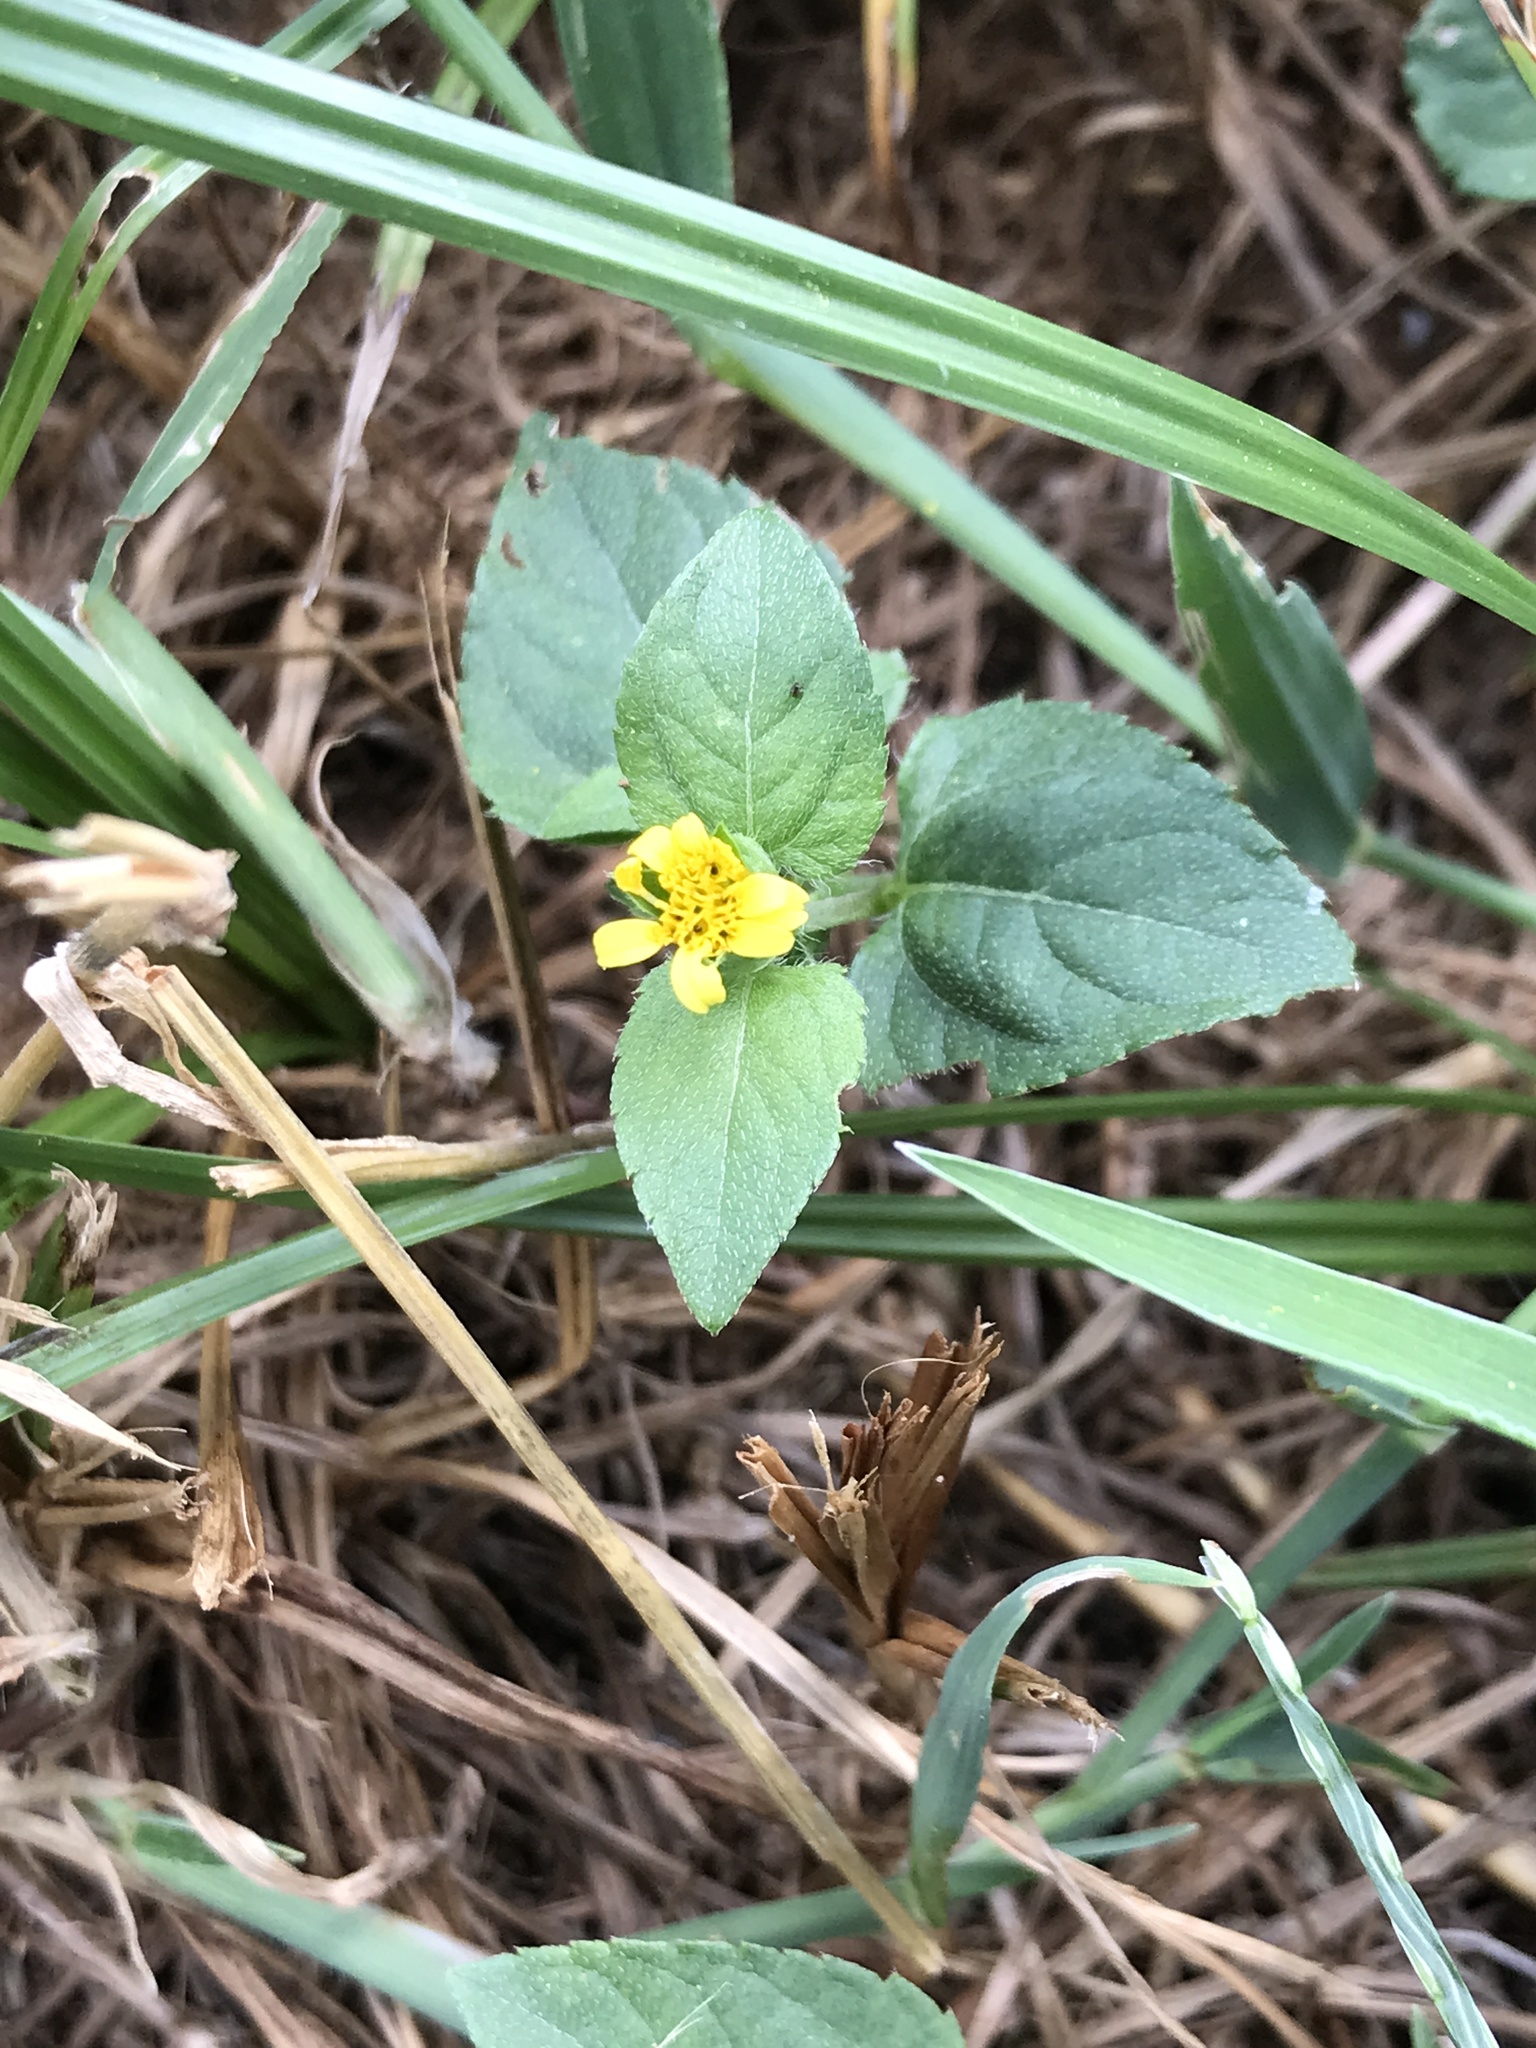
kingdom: Plantae
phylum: Tracheophyta
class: Magnoliopsida
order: Asterales
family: Asteraceae
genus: Calyptocarpus
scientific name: Calyptocarpus vialis
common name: Straggler daisy
